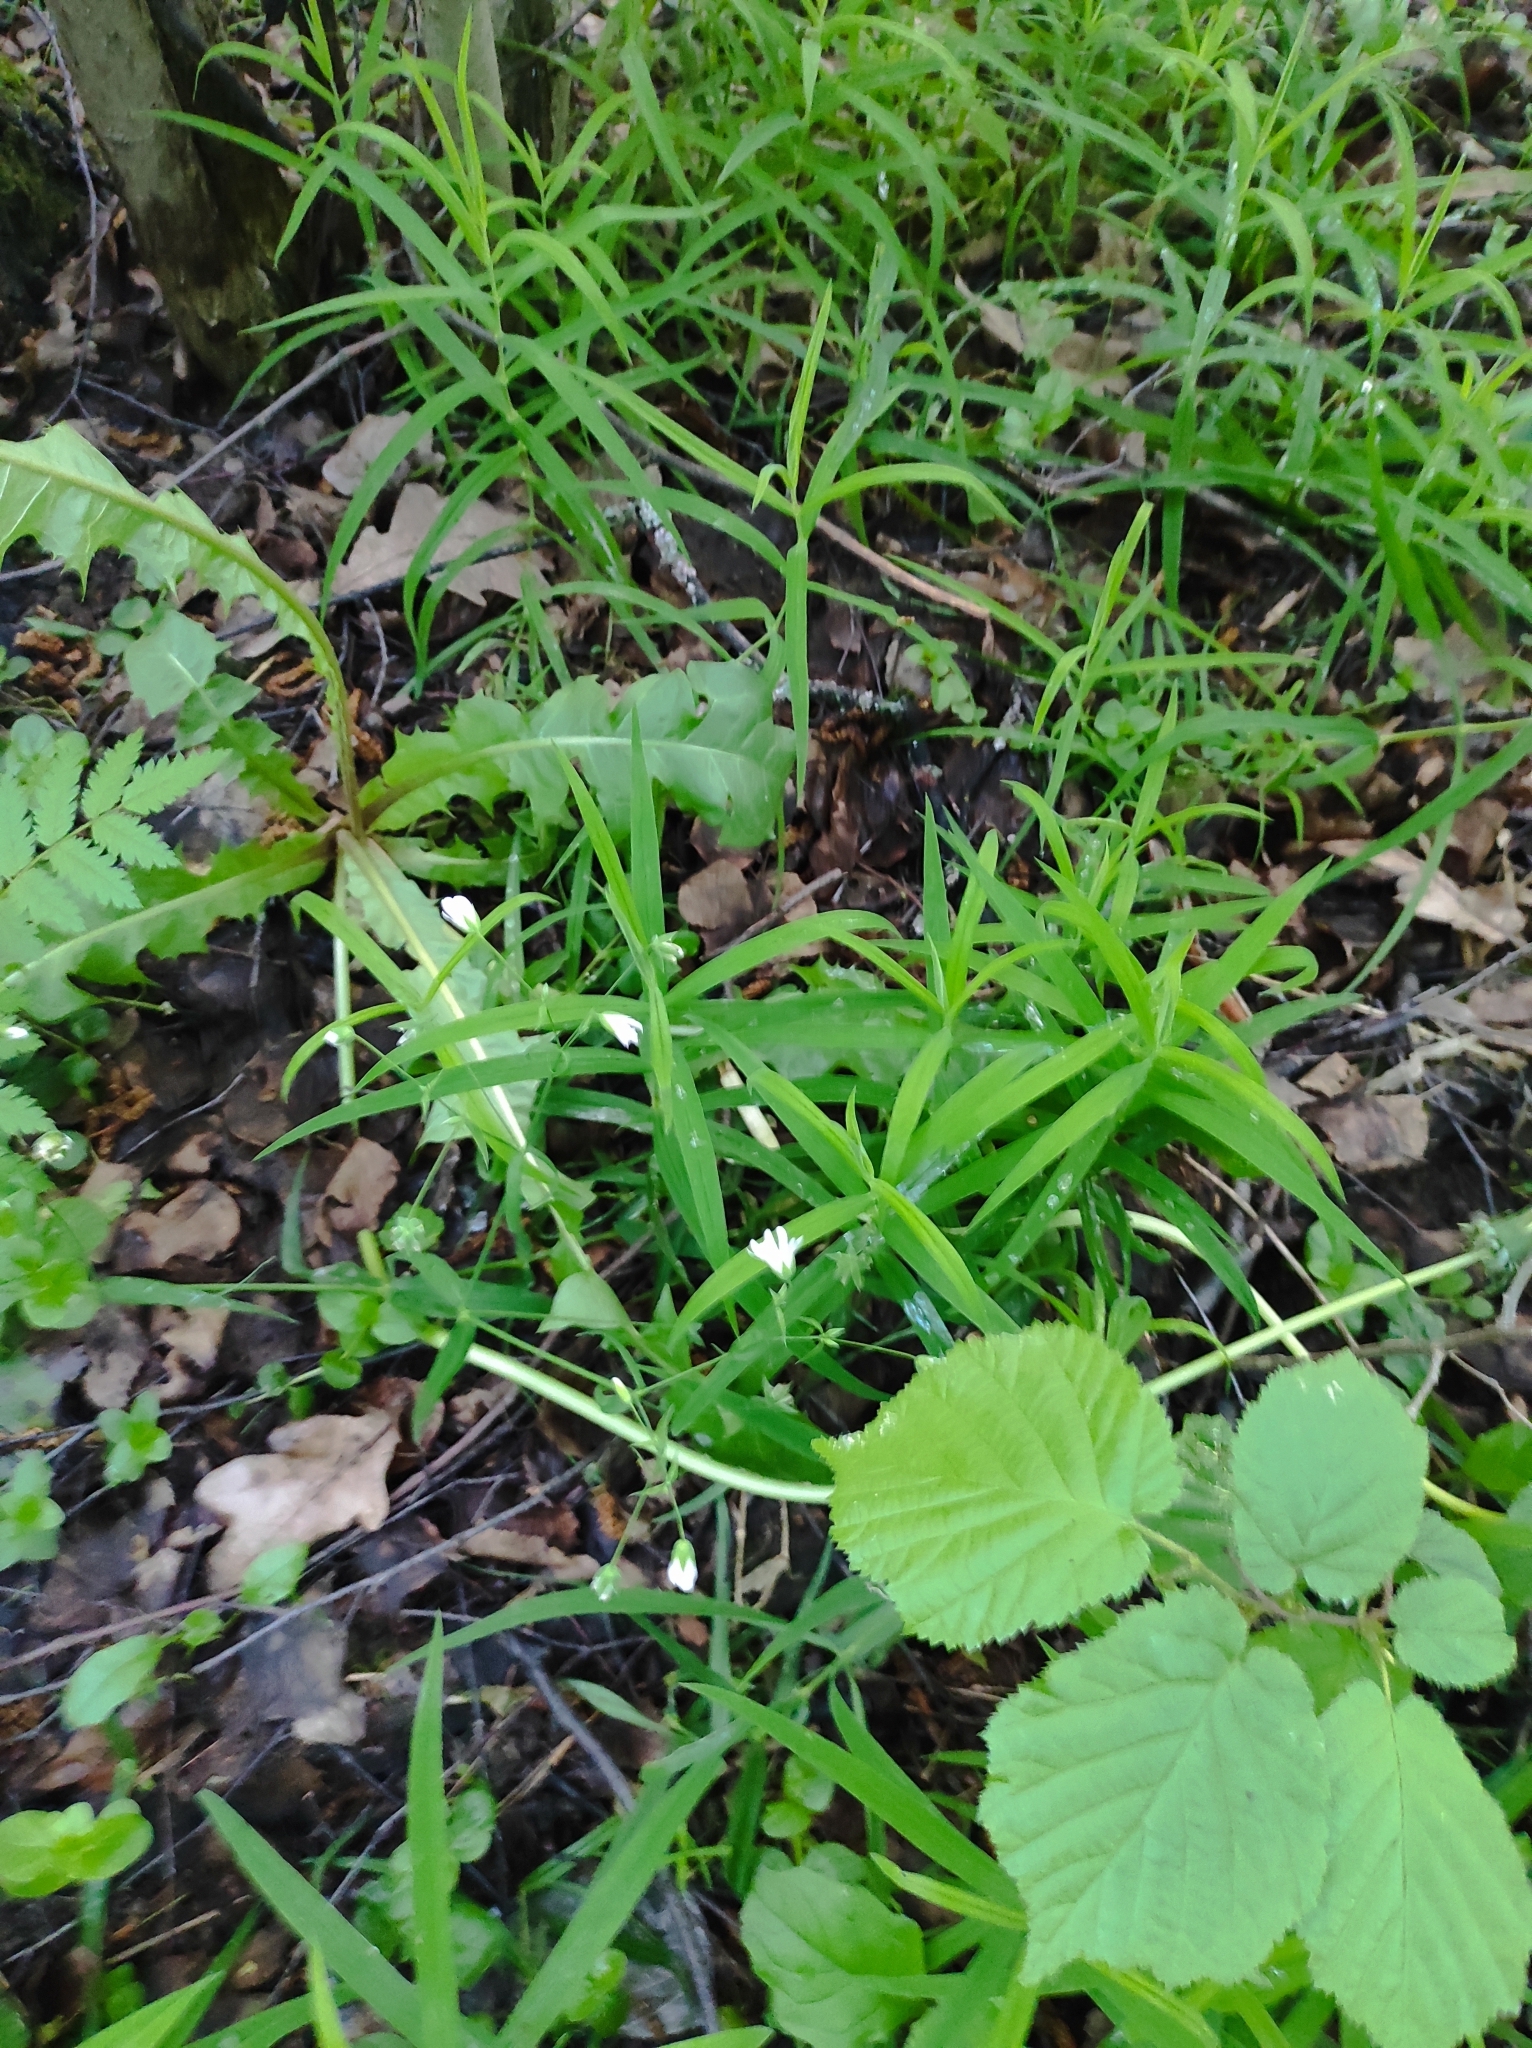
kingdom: Plantae
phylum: Tracheophyta
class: Magnoliopsida
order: Caryophyllales
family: Caryophyllaceae
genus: Rabelera
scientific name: Rabelera holostea
